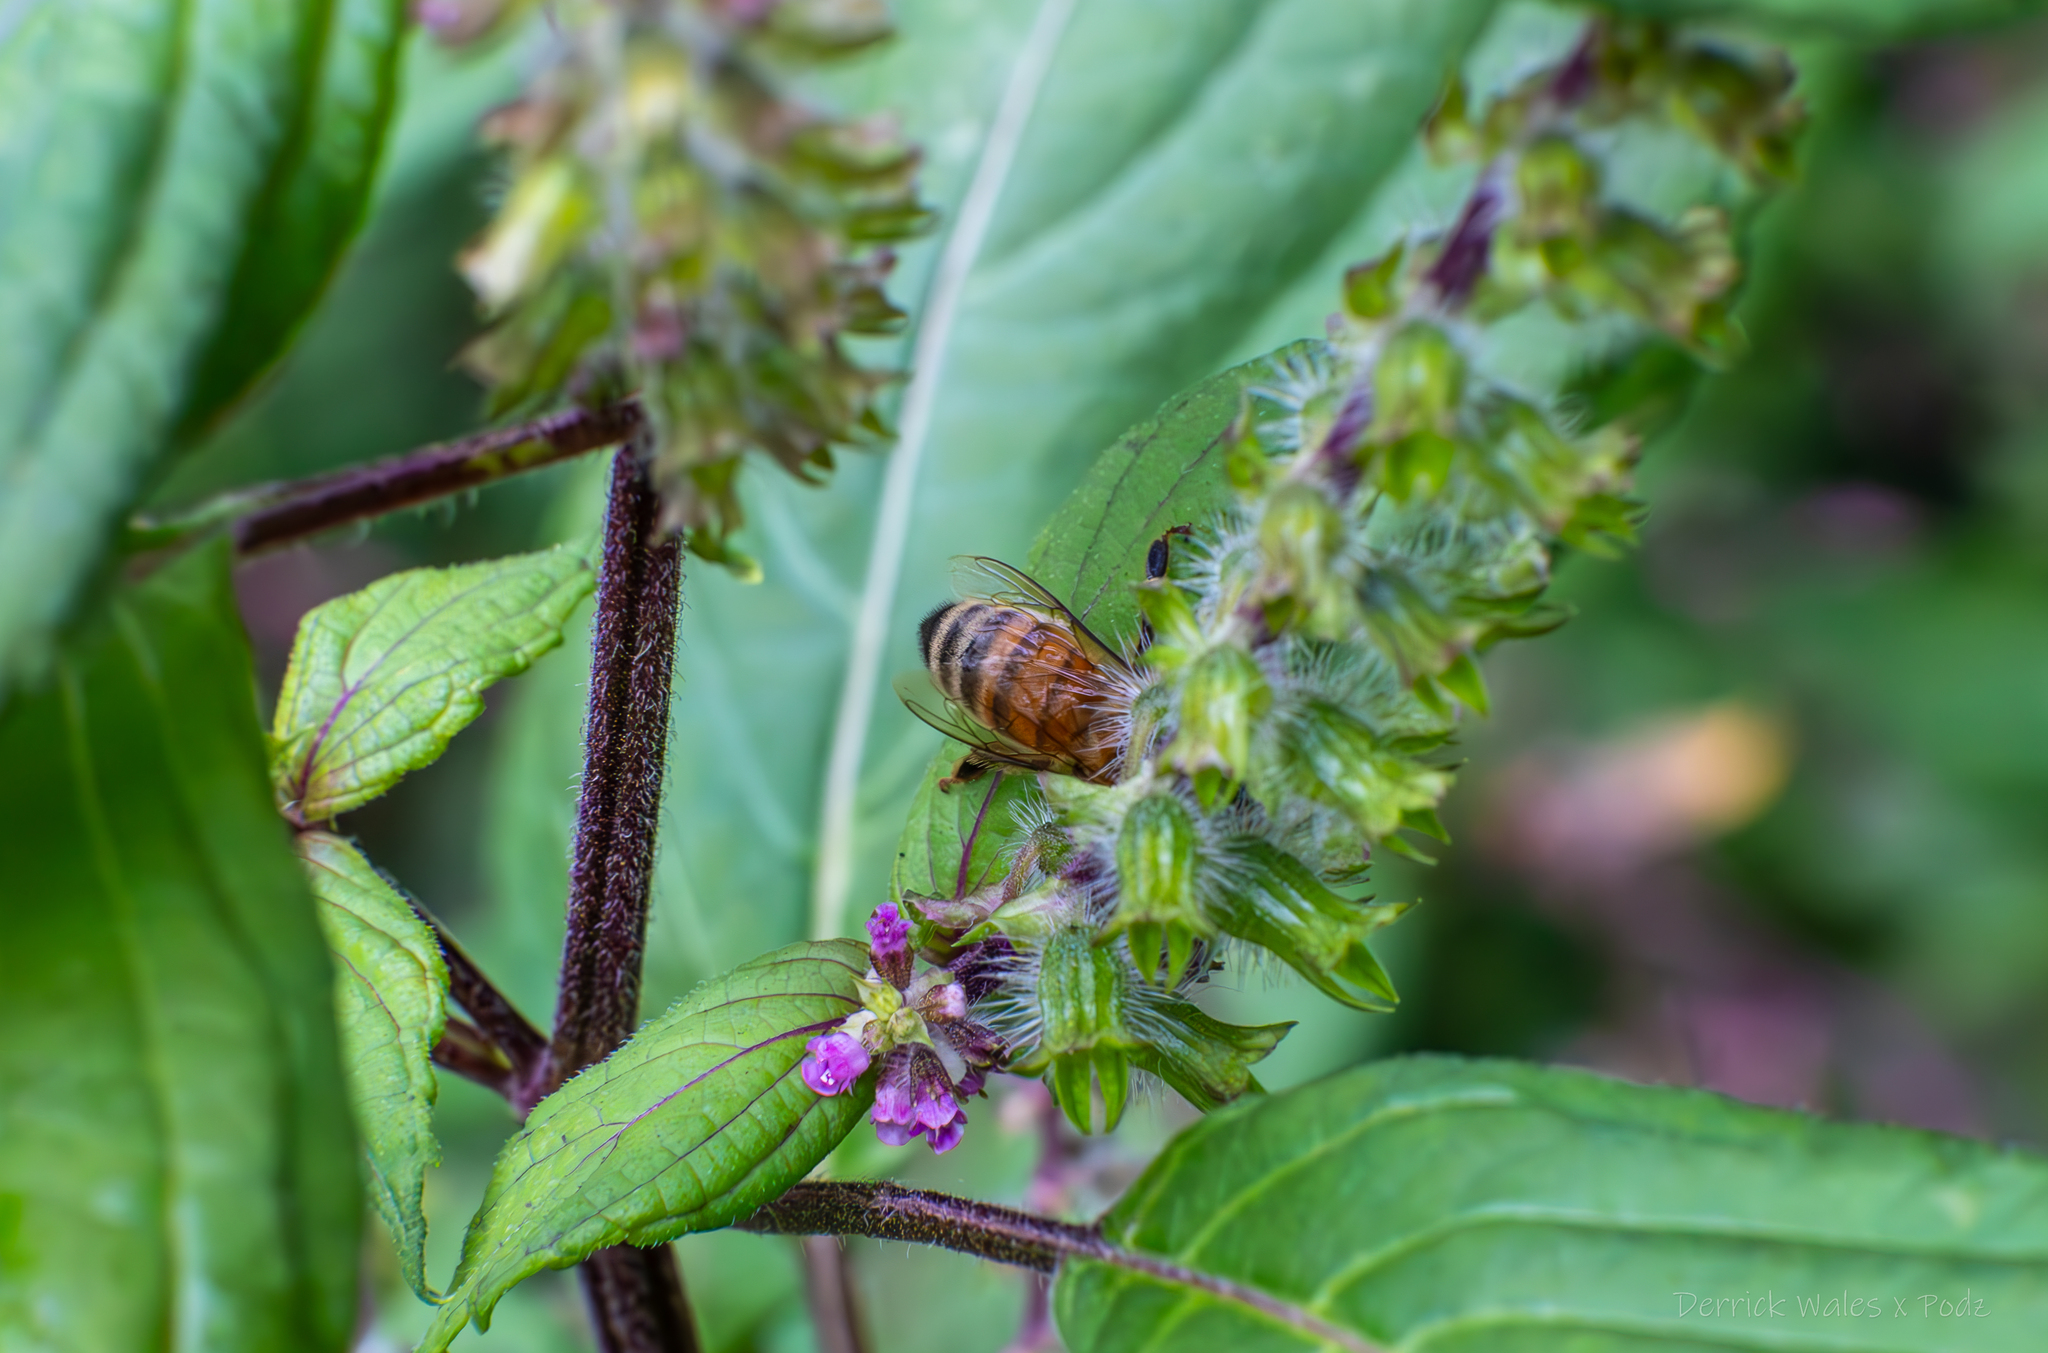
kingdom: Animalia
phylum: Arthropoda
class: Insecta
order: Hymenoptera
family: Apidae
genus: Apis
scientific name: Apis mellifera
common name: Honey bee
